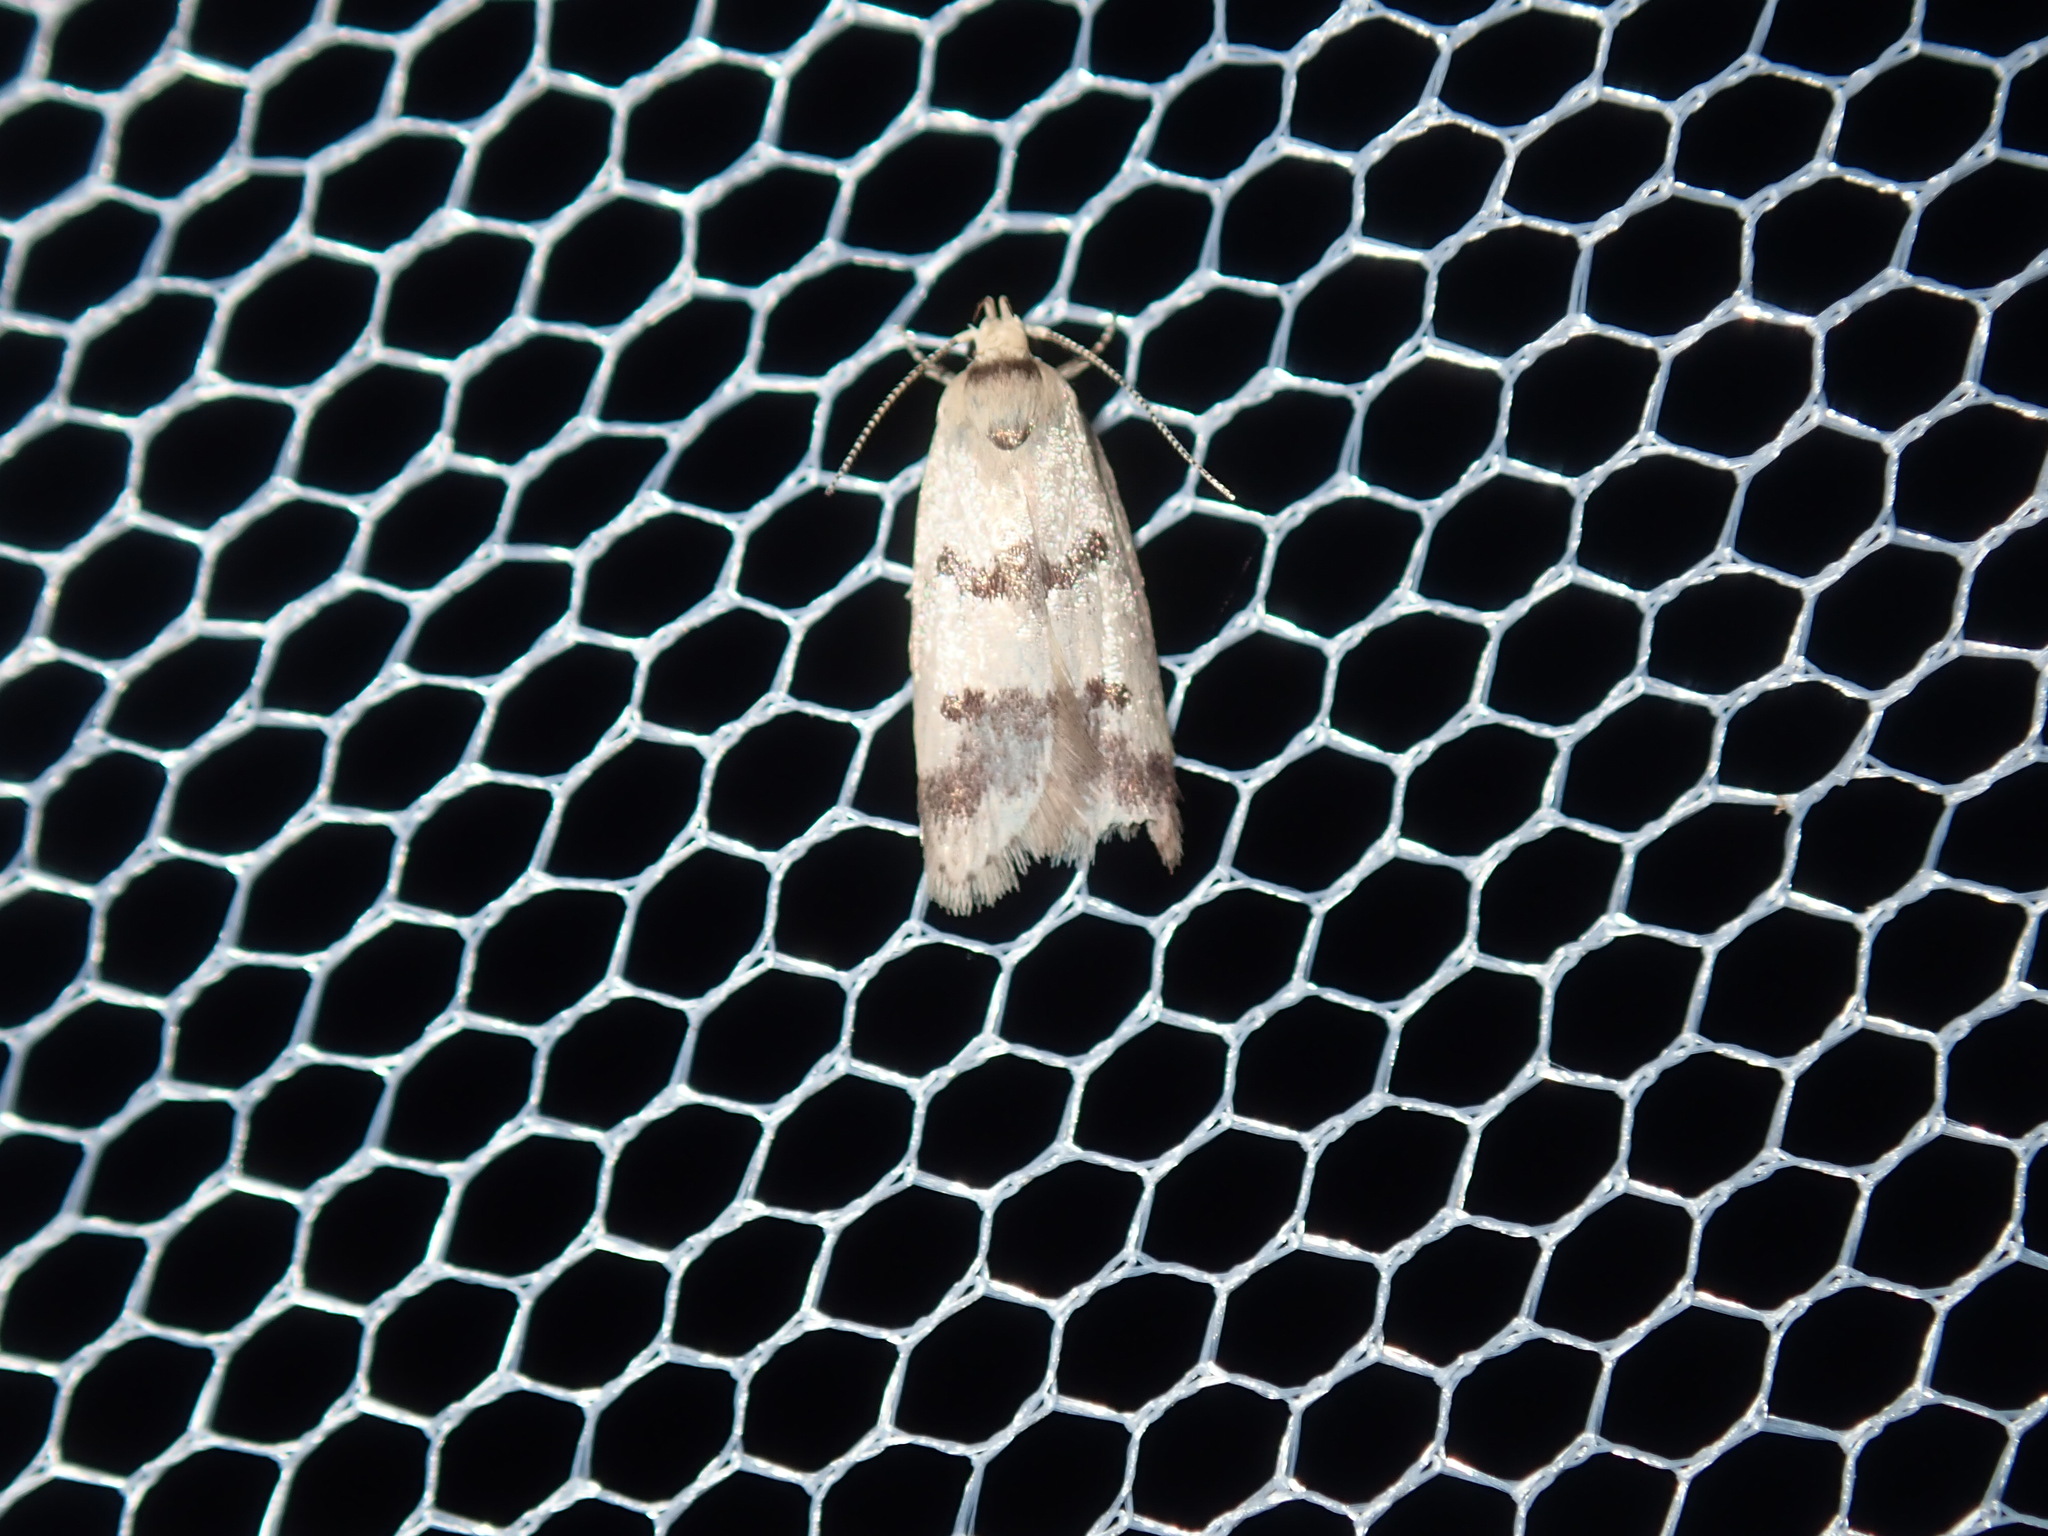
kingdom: Animalia
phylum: Arthropoda
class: Insecta
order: Lepidoptera
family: Oecophoridae
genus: Compsotropha
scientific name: Compsotropha strophiella
